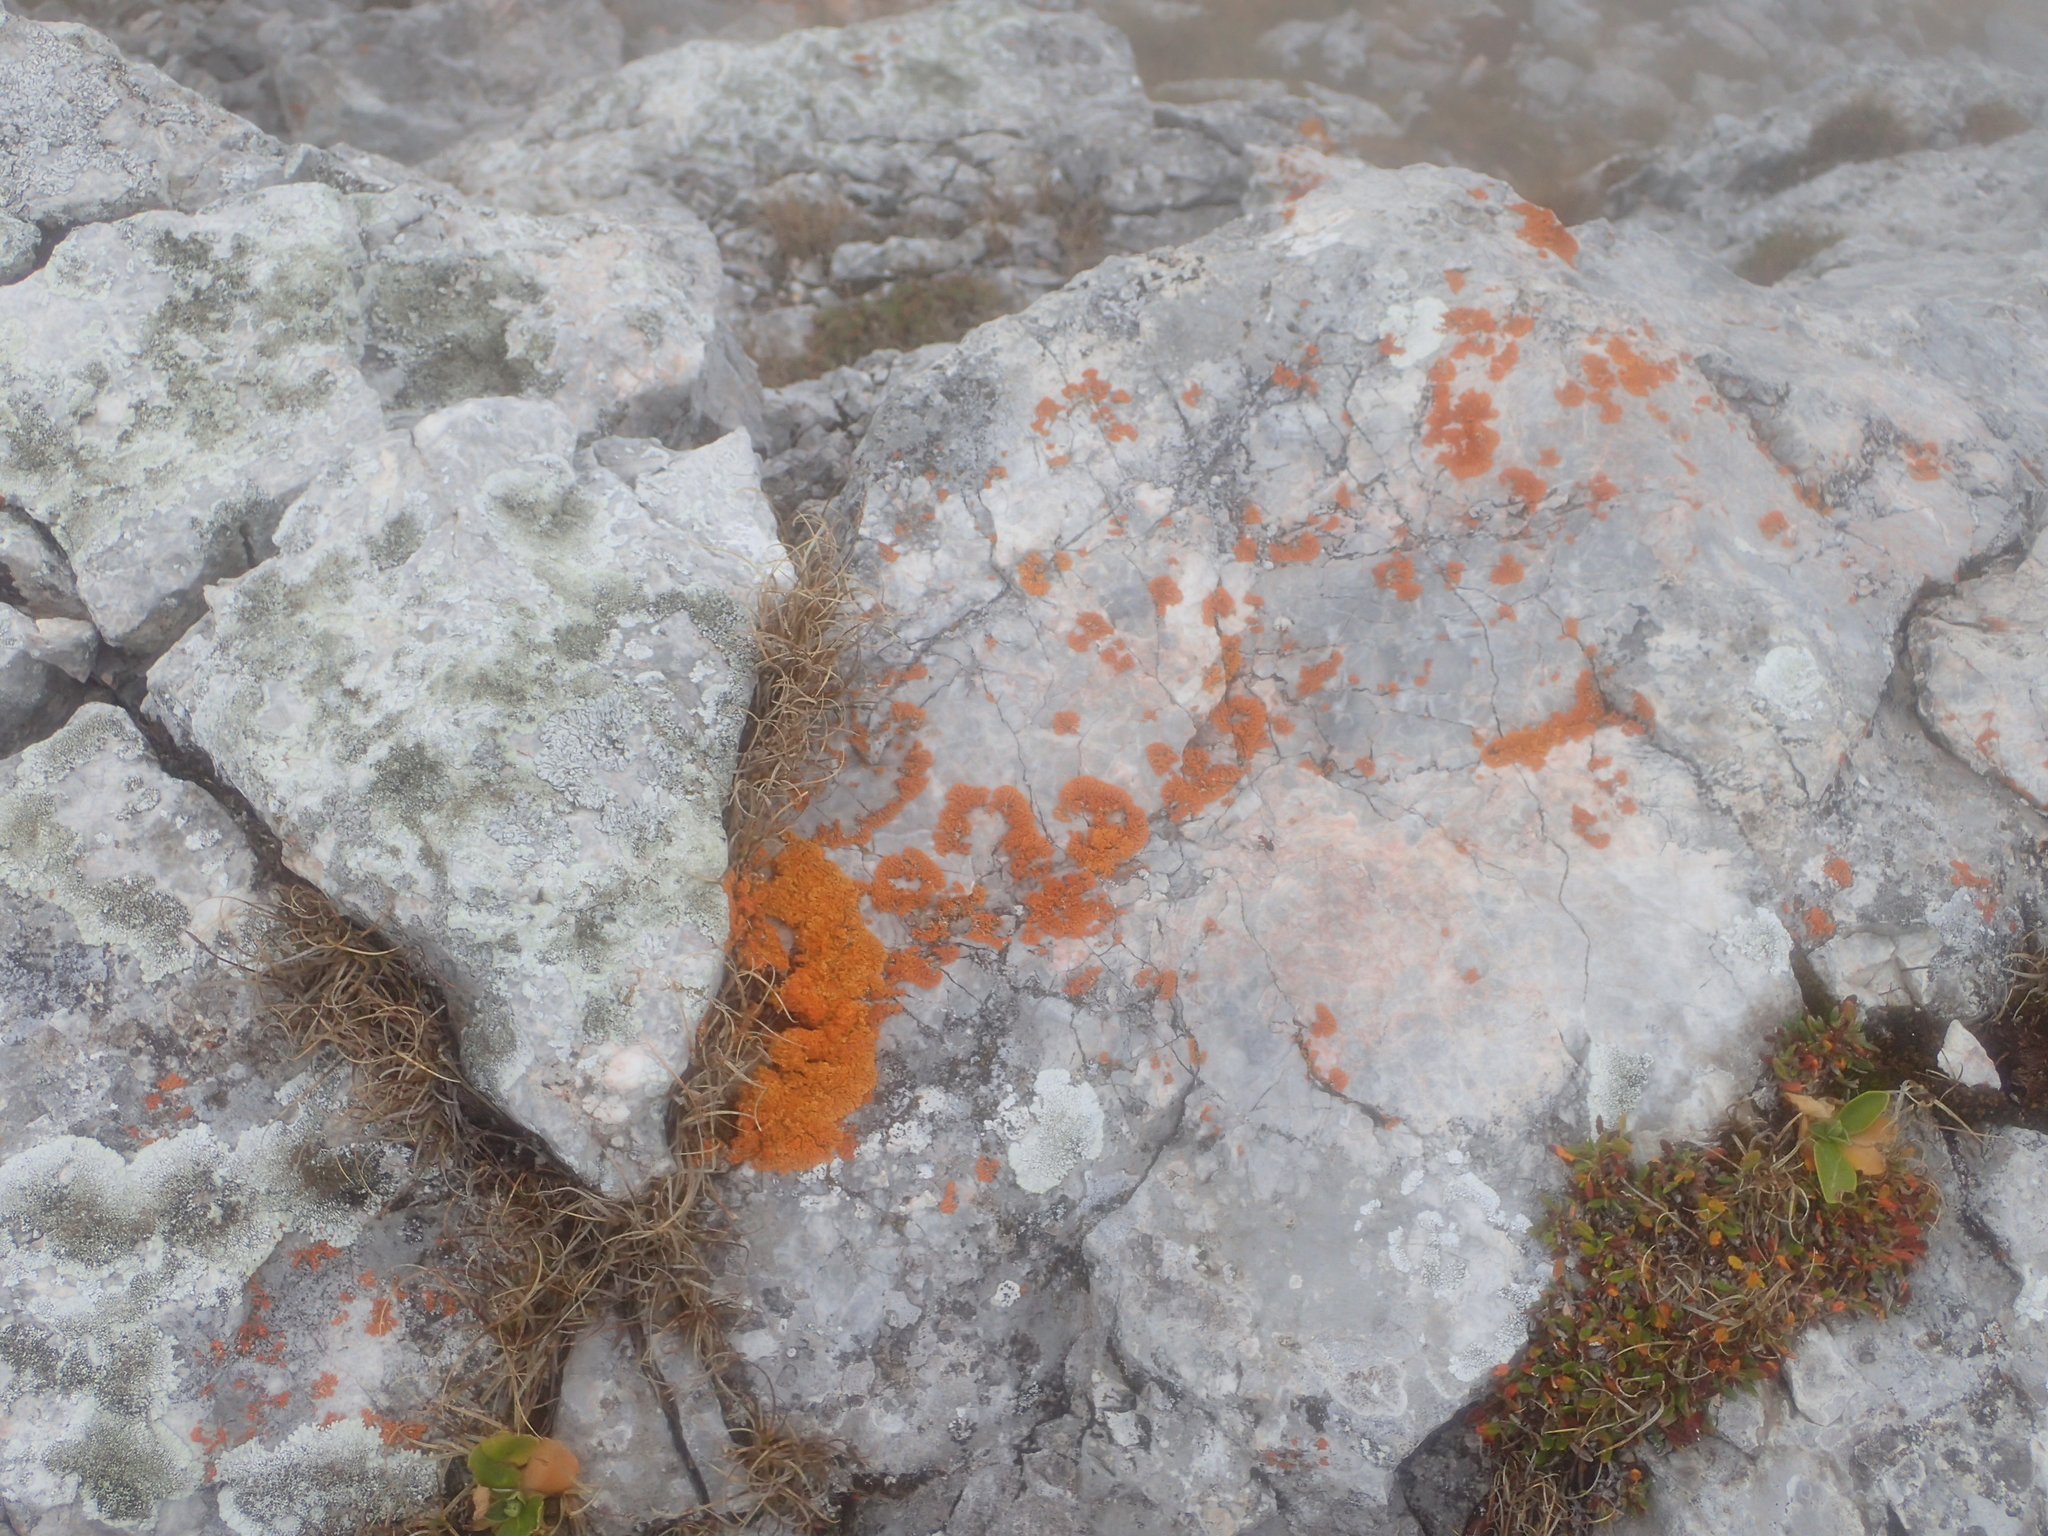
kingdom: Fungi
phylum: Ascomycota
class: Lecanoromycetes
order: Teloschistales
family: Teloschistaceae
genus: Xanthoria
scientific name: Xanthoria elegans
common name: Elegant sunburst lichen
